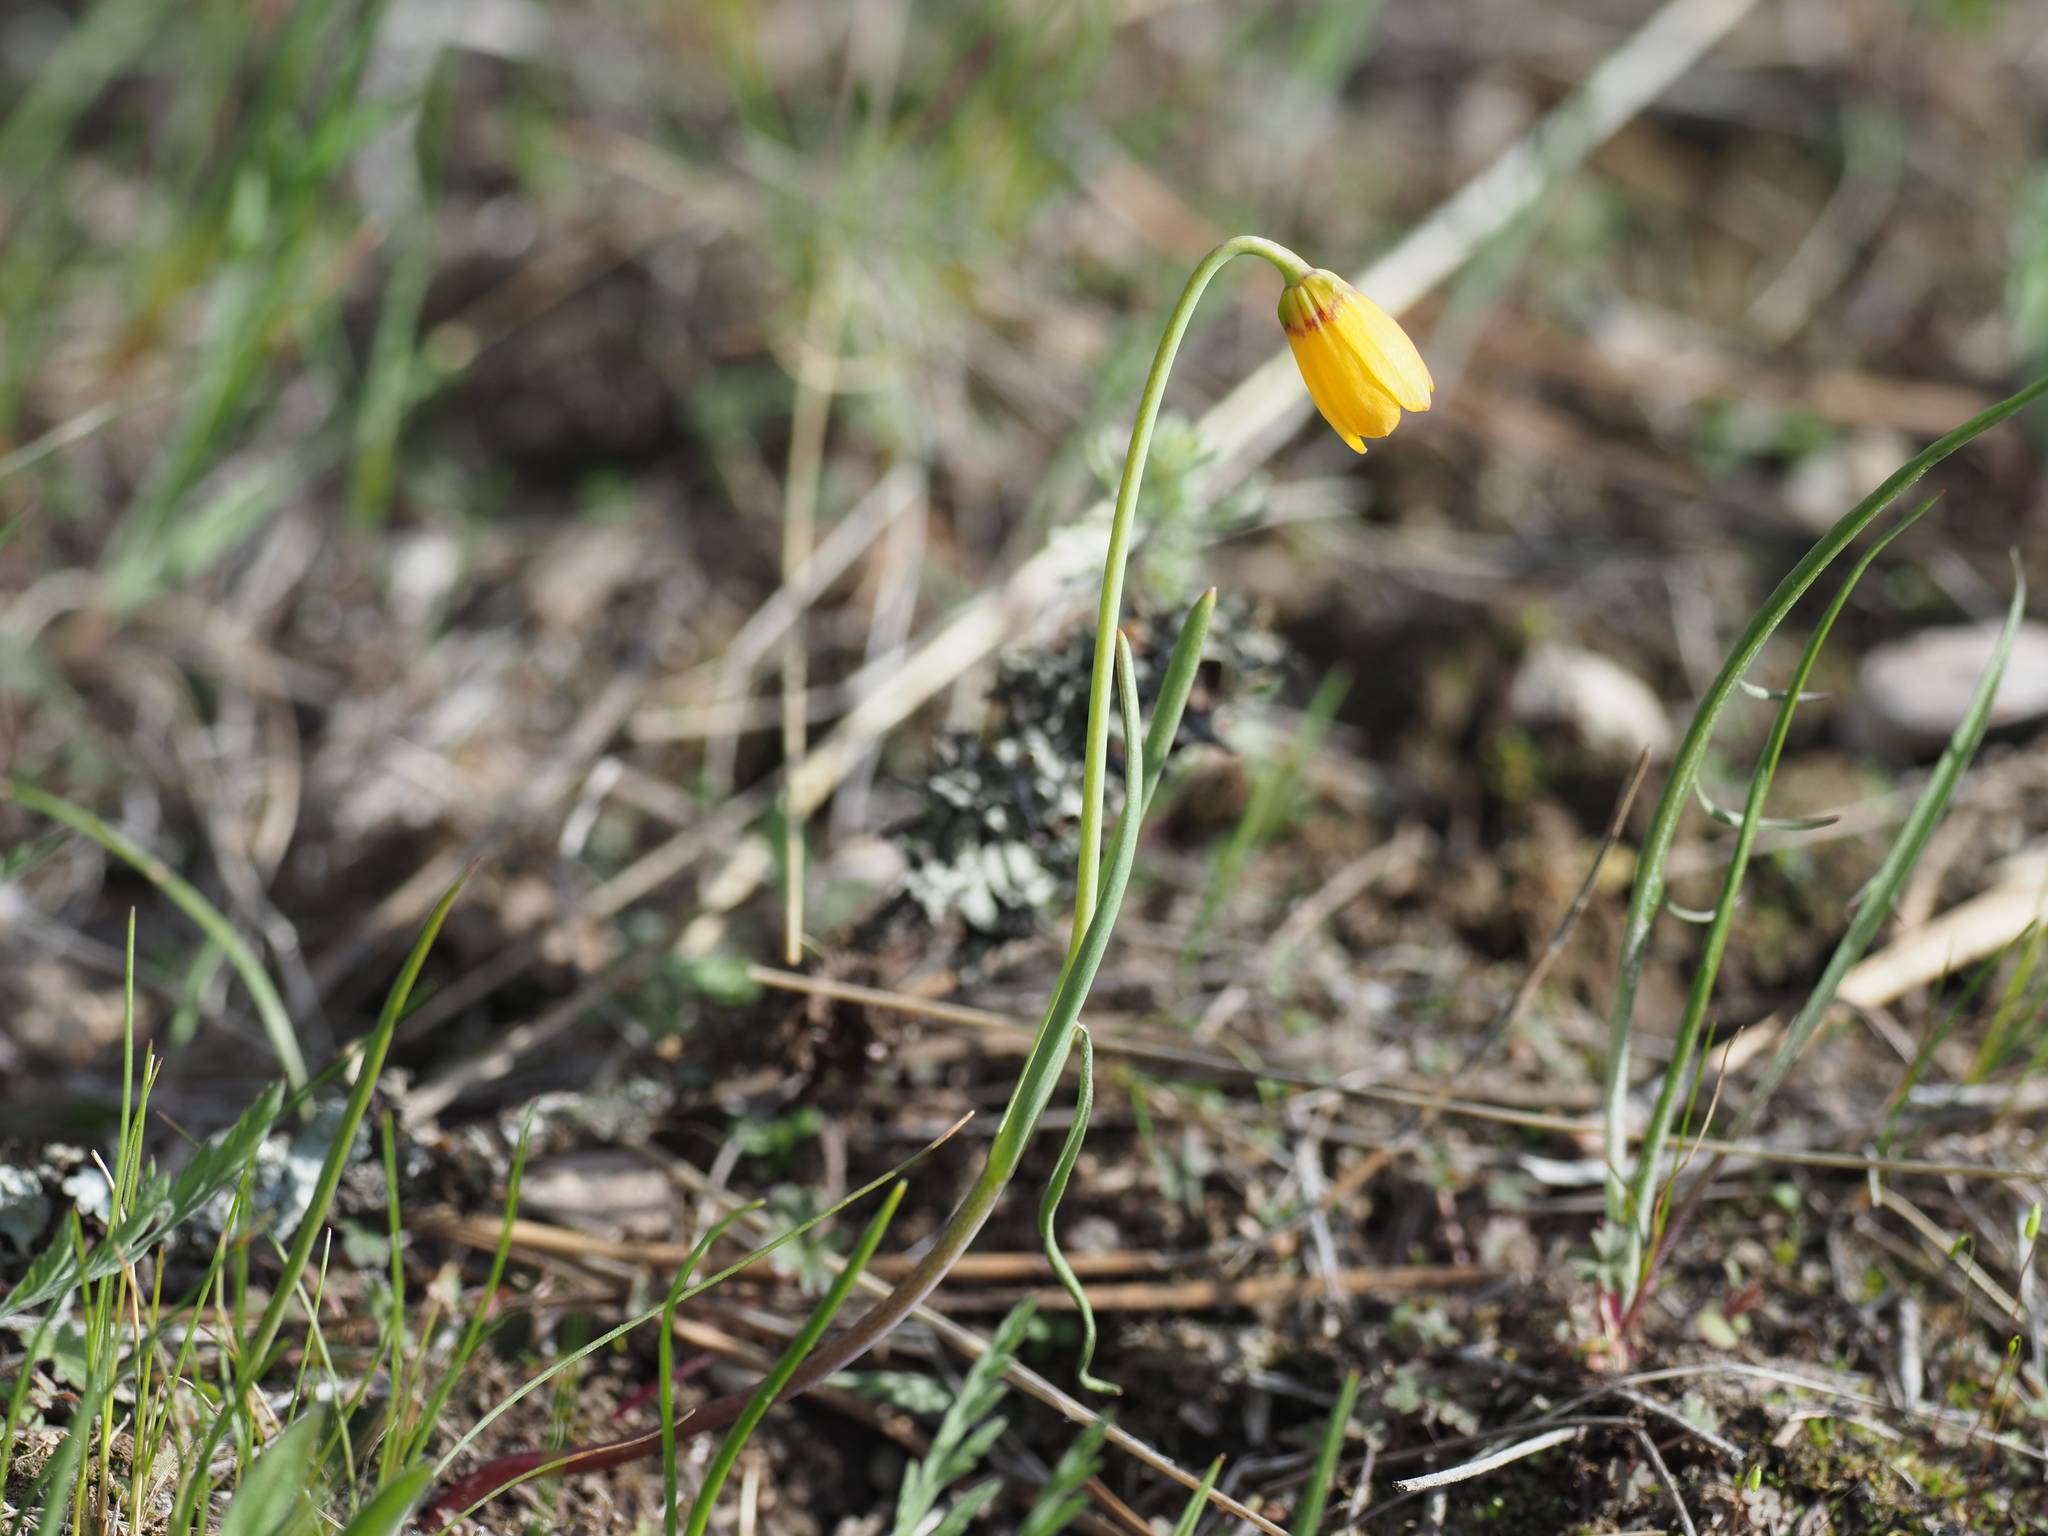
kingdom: Plantae
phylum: Tracheophyta
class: Liliopsida
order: Liliales
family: Liliaceae
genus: Fritillaria
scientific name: Fritillaria pudica
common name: Yellow fritillary
